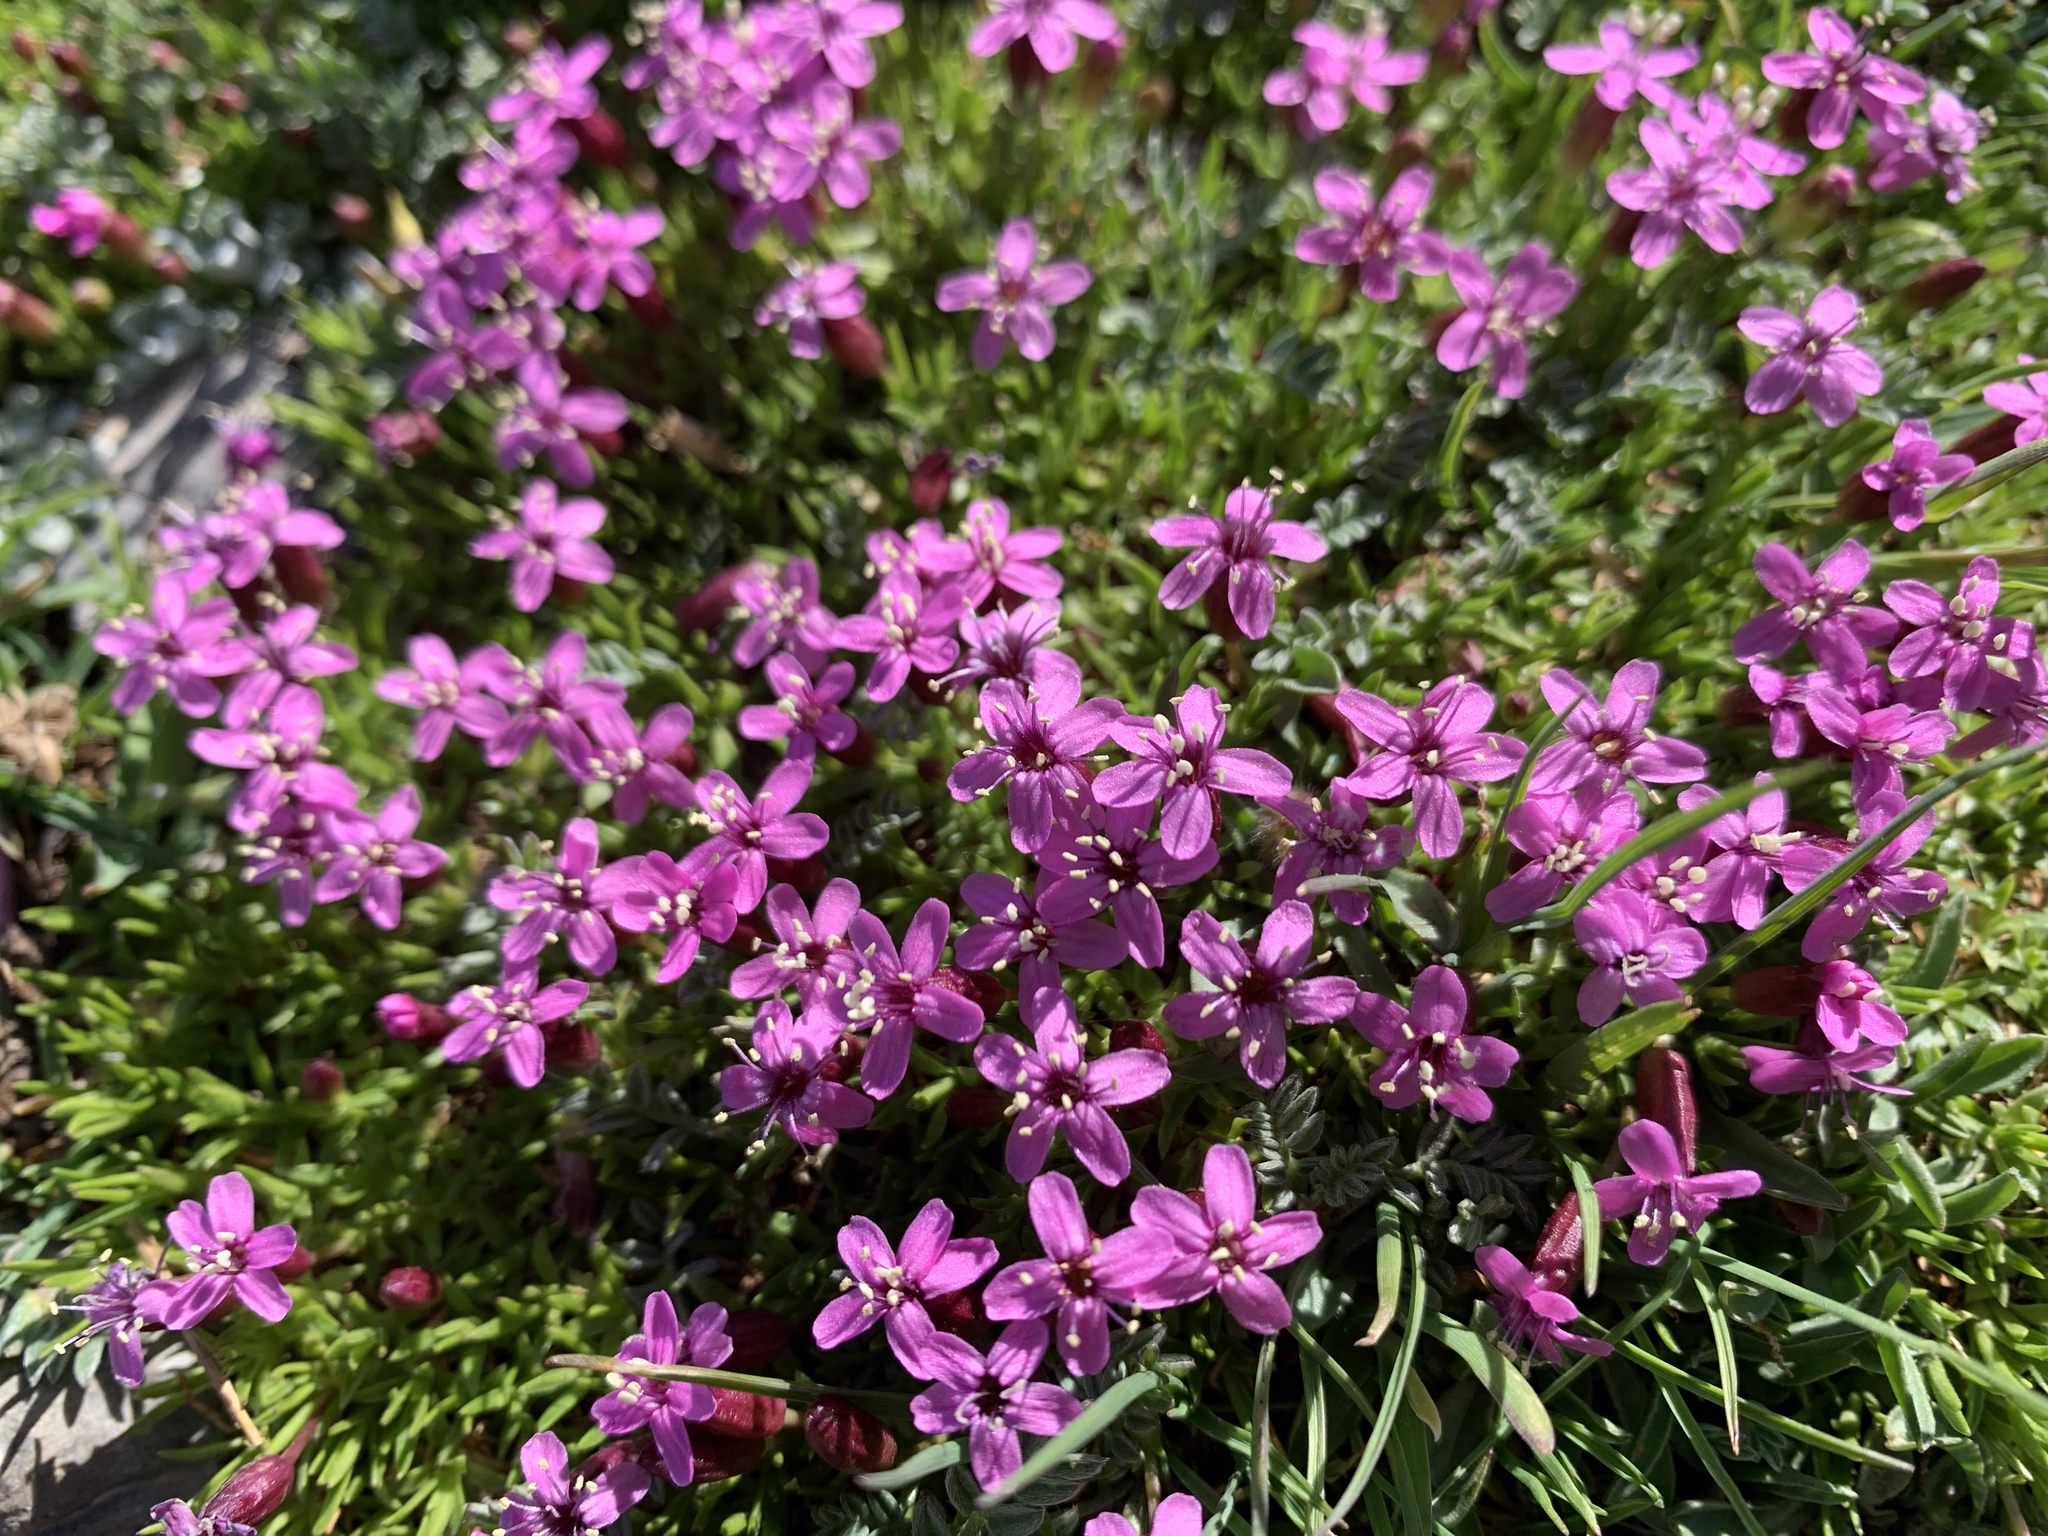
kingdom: Plantae
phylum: Tracheophyta
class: Magnoliopsida
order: Caryophyllales
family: Caryophyllaceae
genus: Silene
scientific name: Silene acaulis
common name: Moss campion
